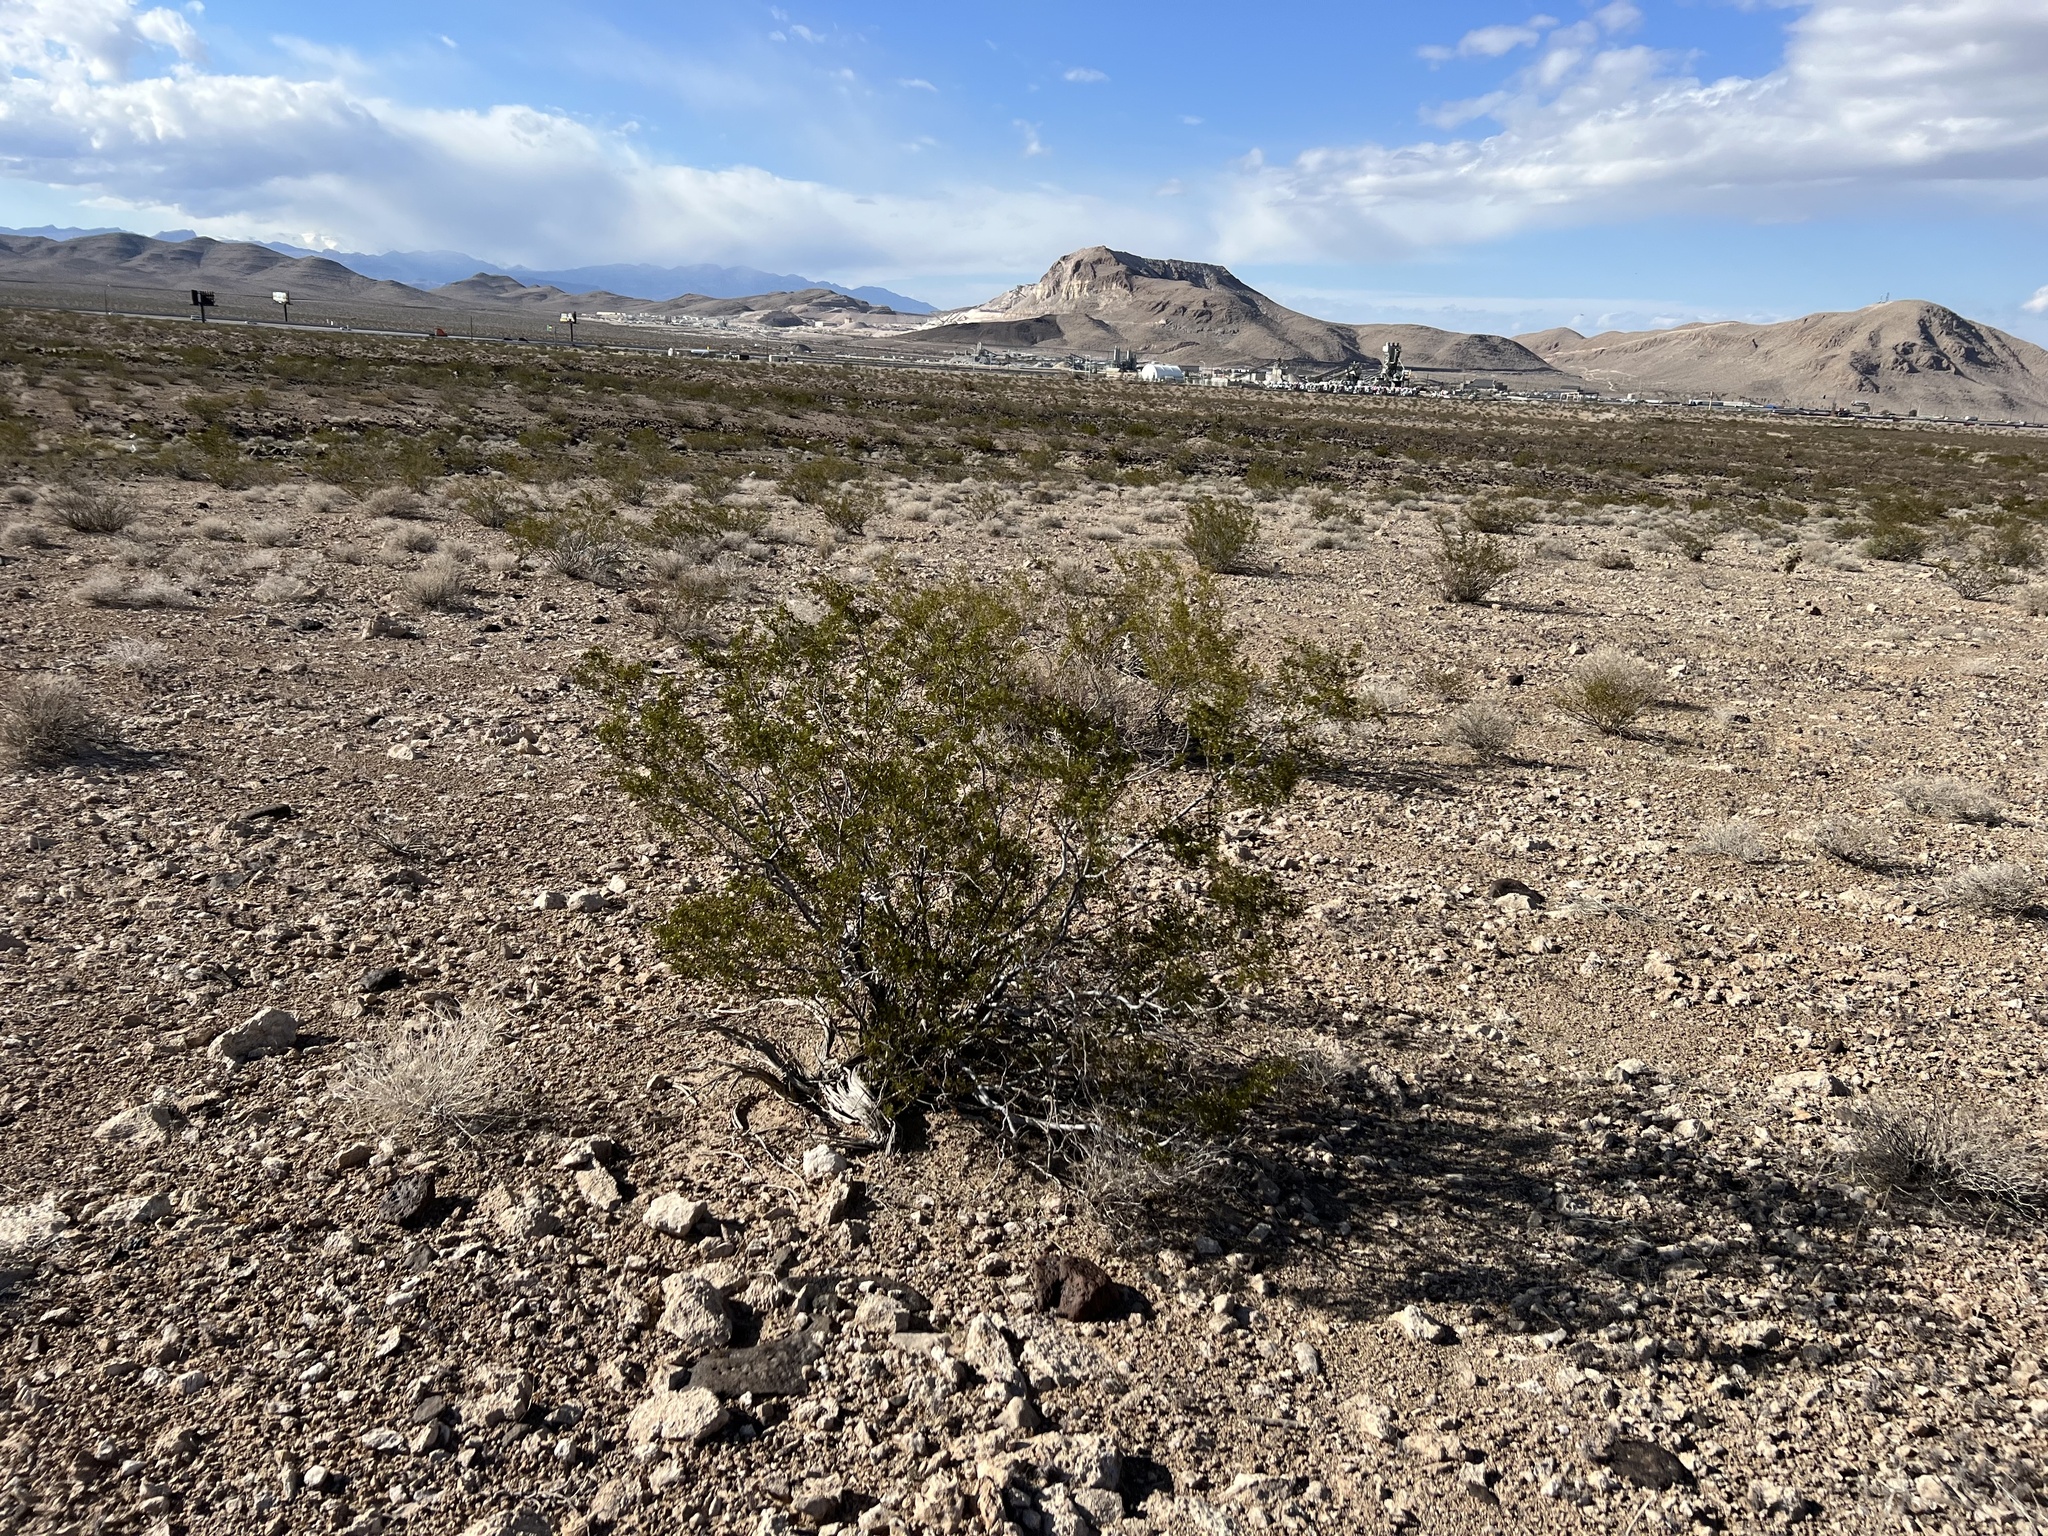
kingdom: Plantae
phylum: Tracheophyta
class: Magnoliopsida
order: Zygophyllales
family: Zygophyllaceae
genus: Larrea
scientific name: Larrea tridentata
